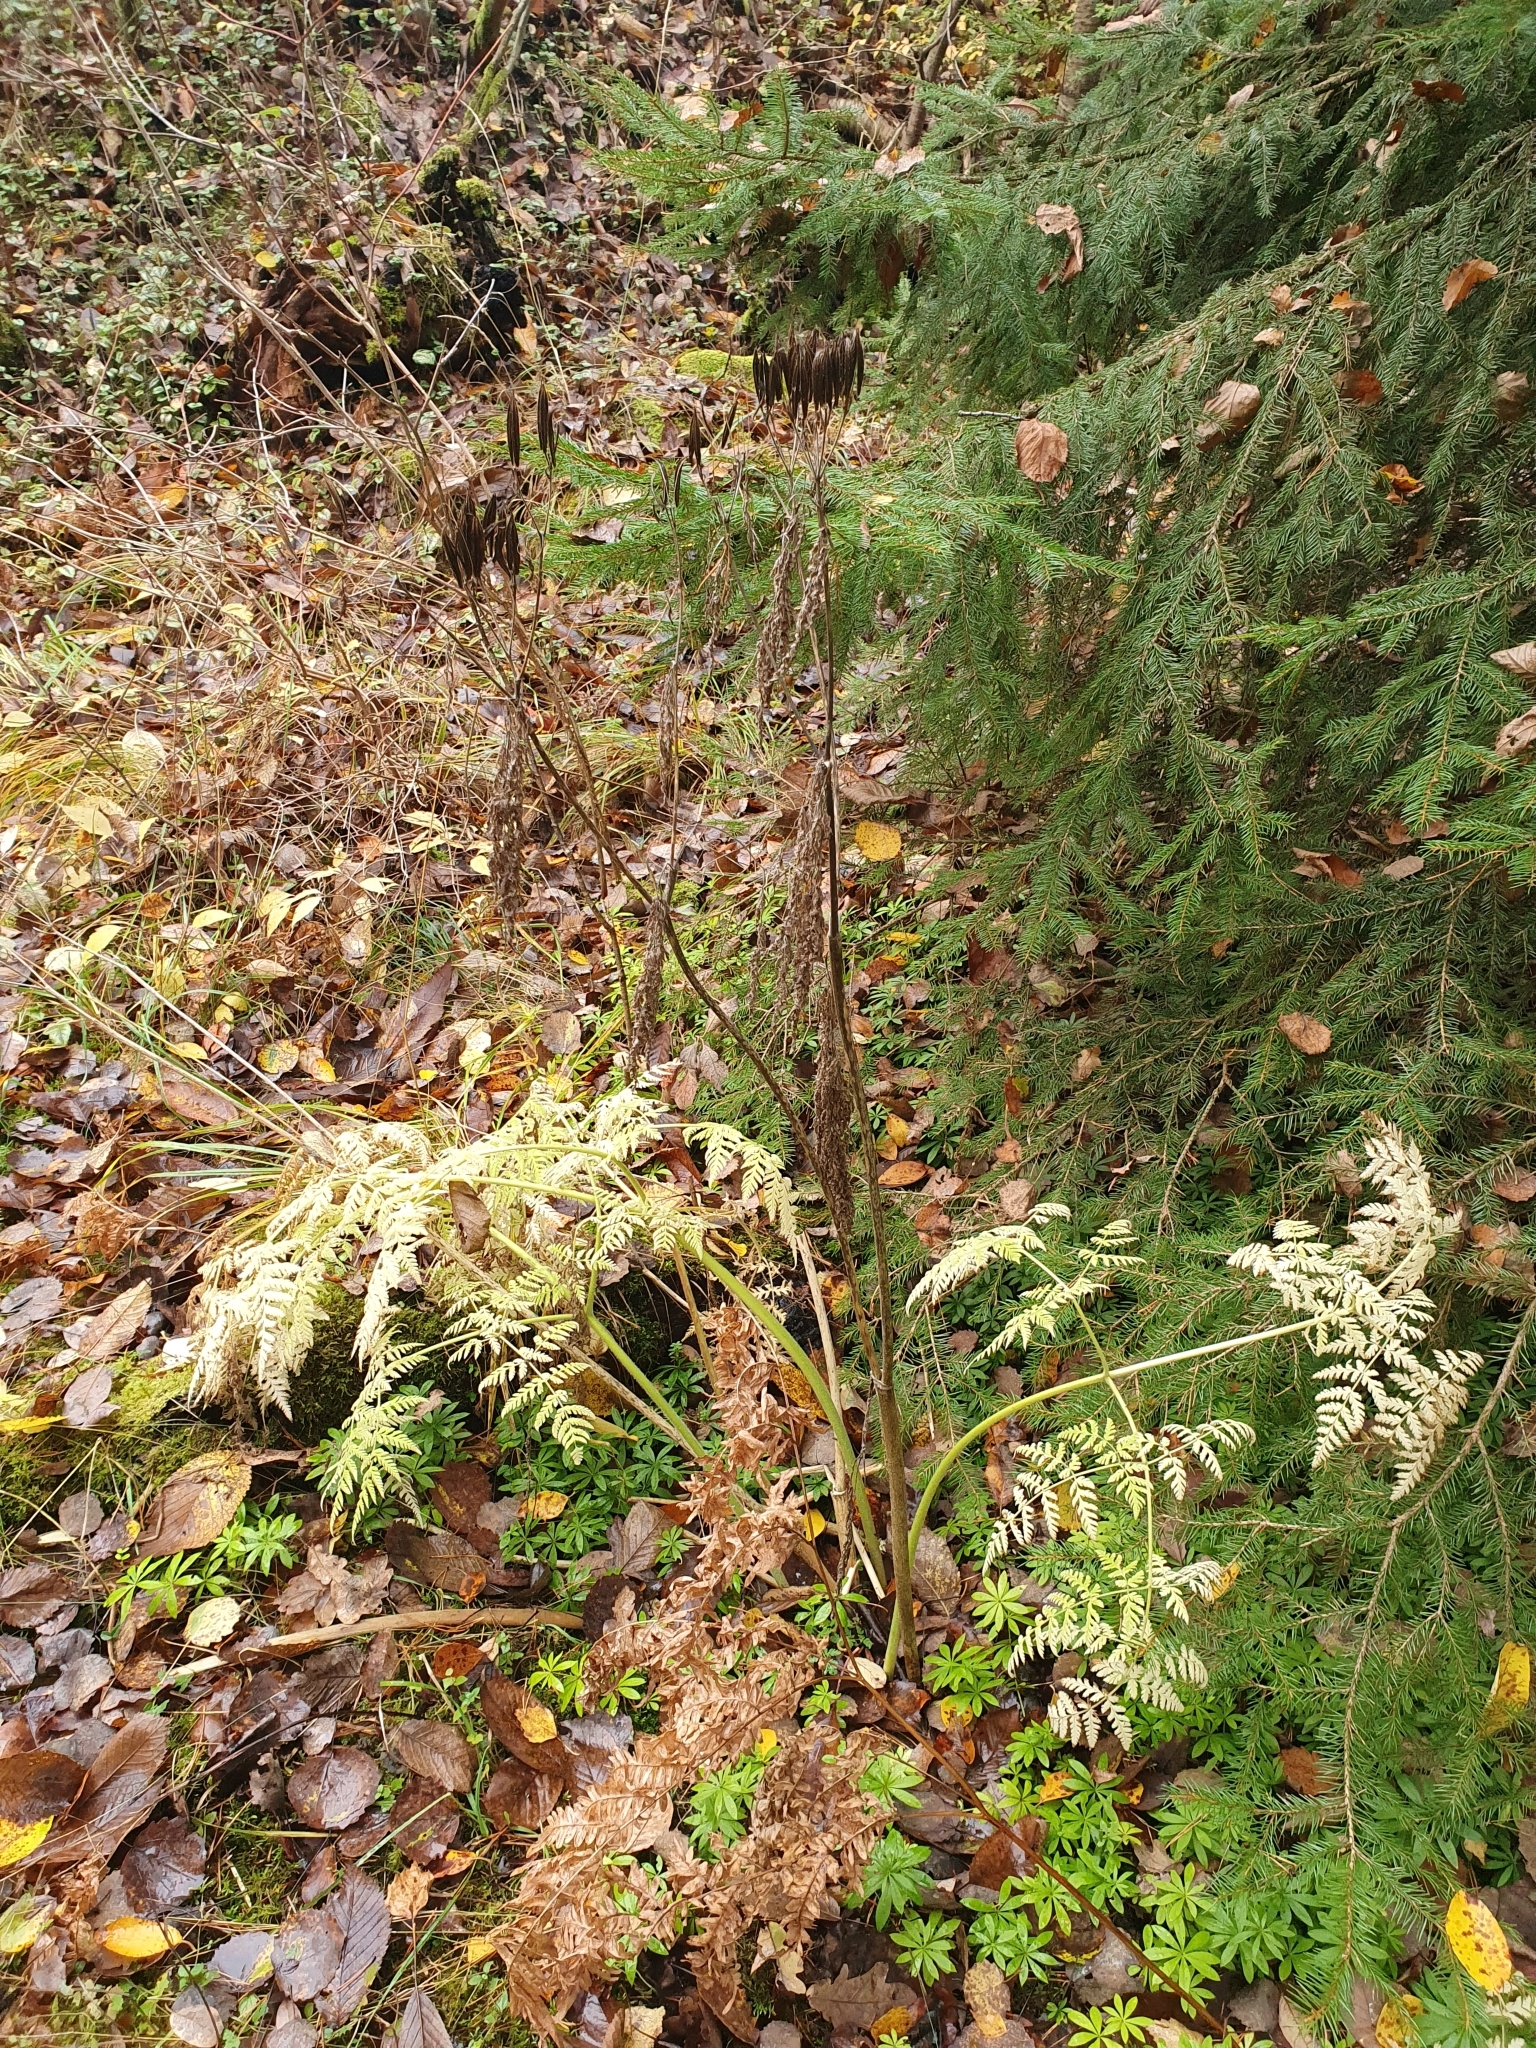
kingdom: Plantae
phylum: Tracheophyta
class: Magnoliopsida
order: Apiales
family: Apiaceae
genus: Myrrhis
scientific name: Myrrhis odorata
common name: Sweet cicely
